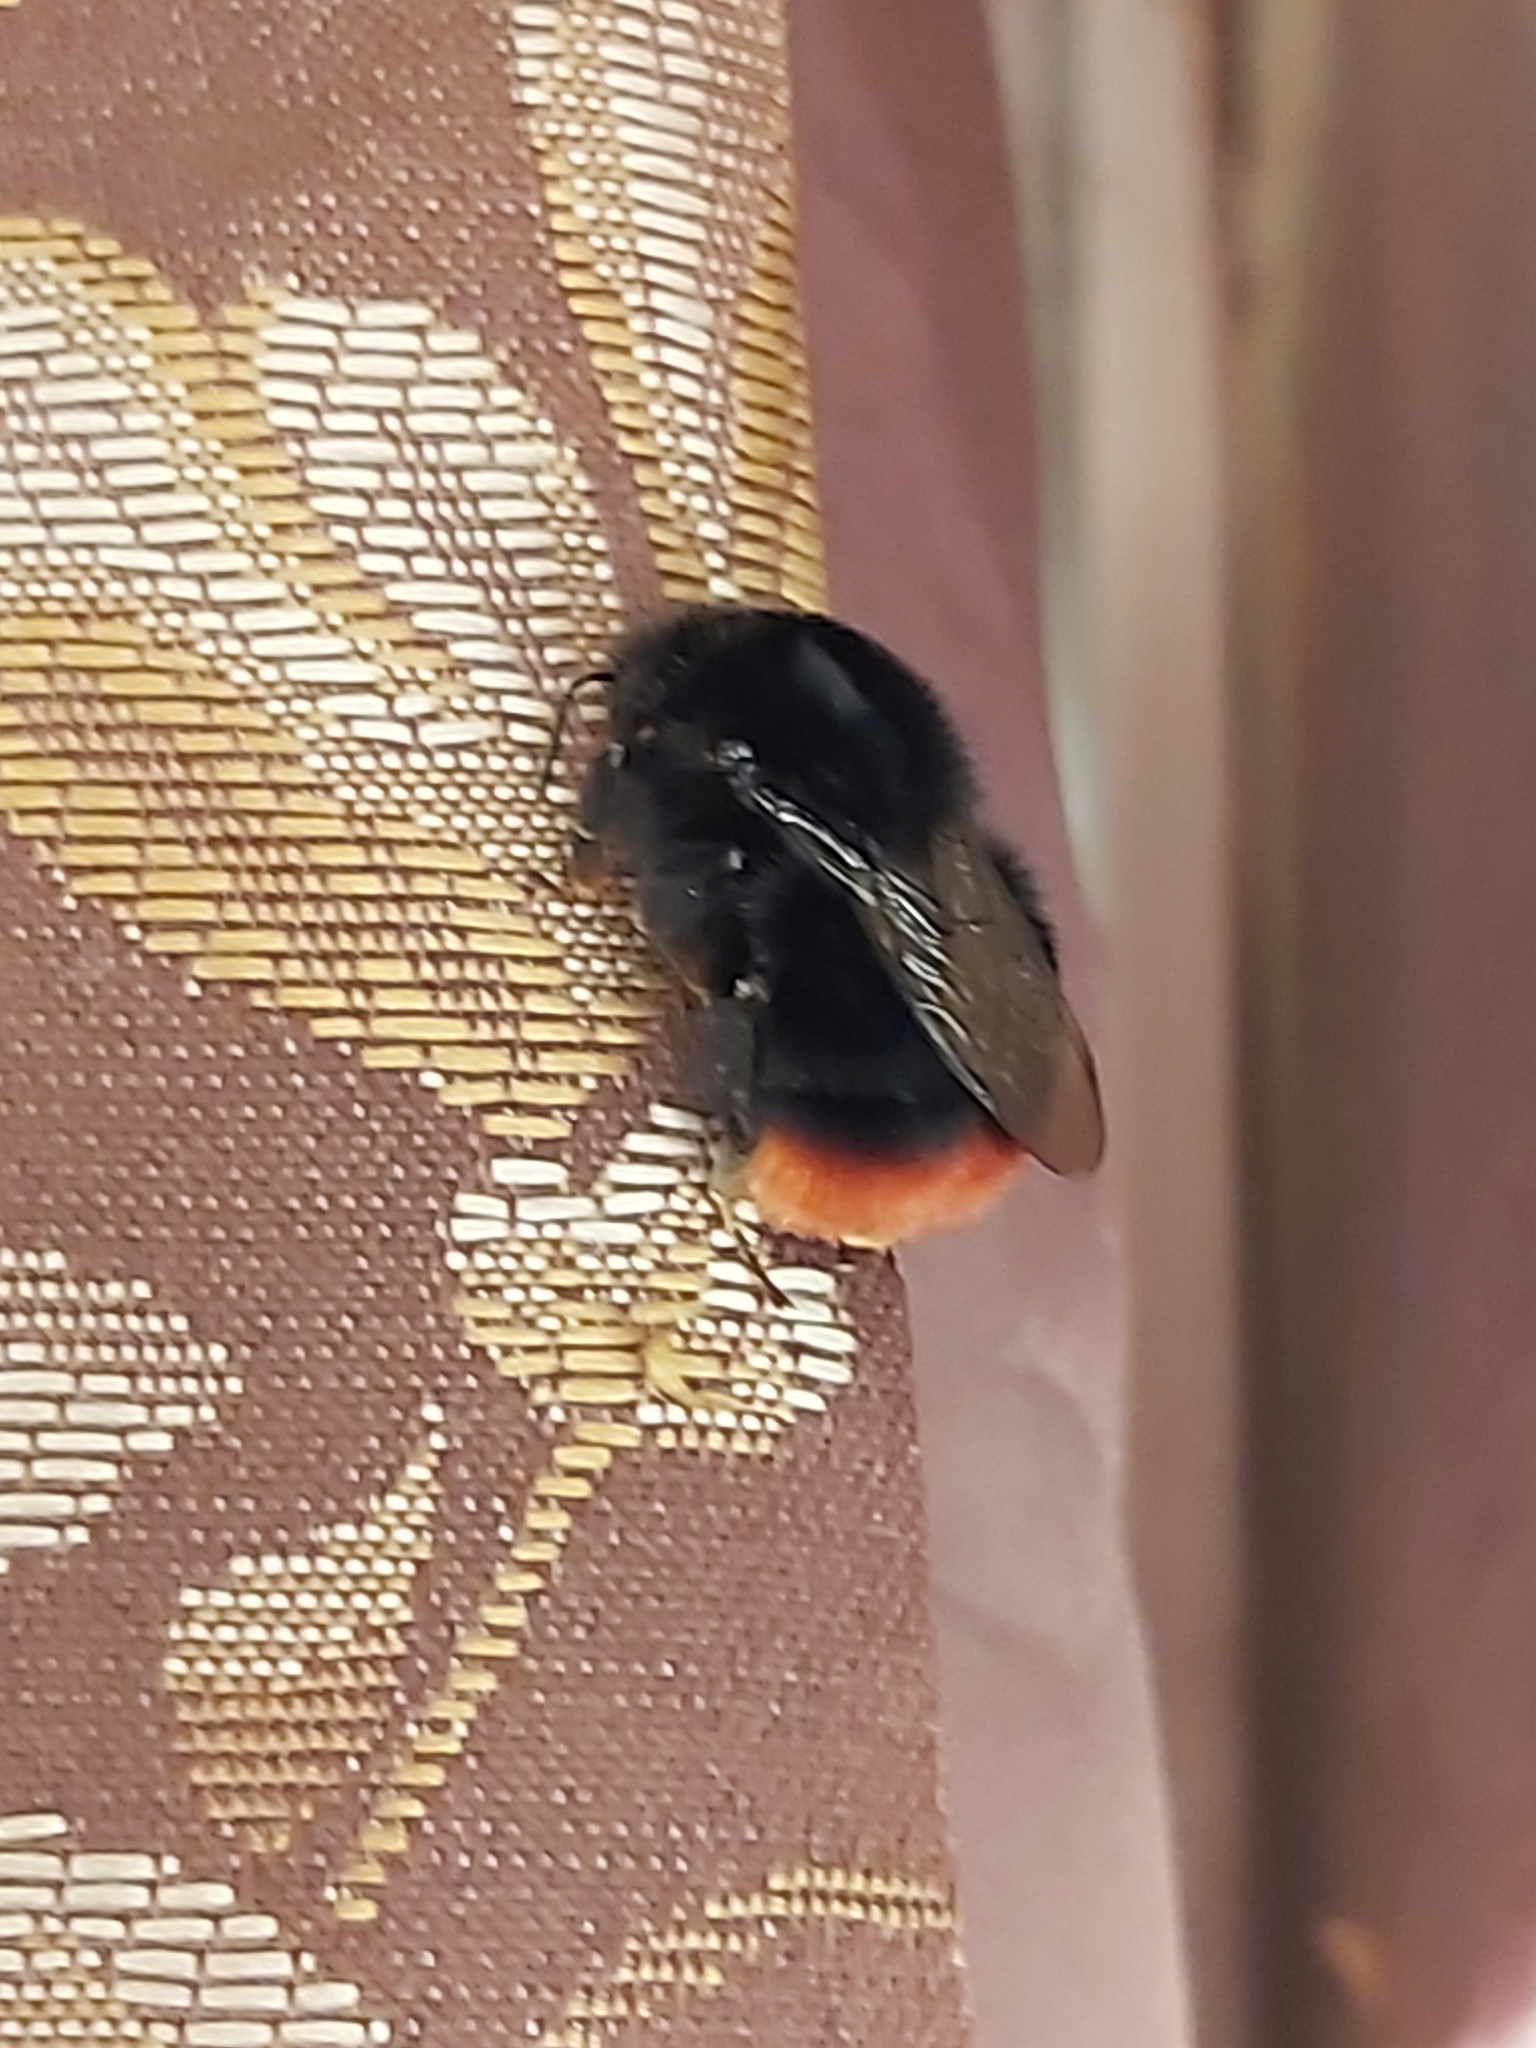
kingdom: Animalia
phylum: Arthropoda
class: Insecta
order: Hymenoptera
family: Apidae
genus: Bombus
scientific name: Bombus lapidarius
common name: Large red-tailed humble-bee
